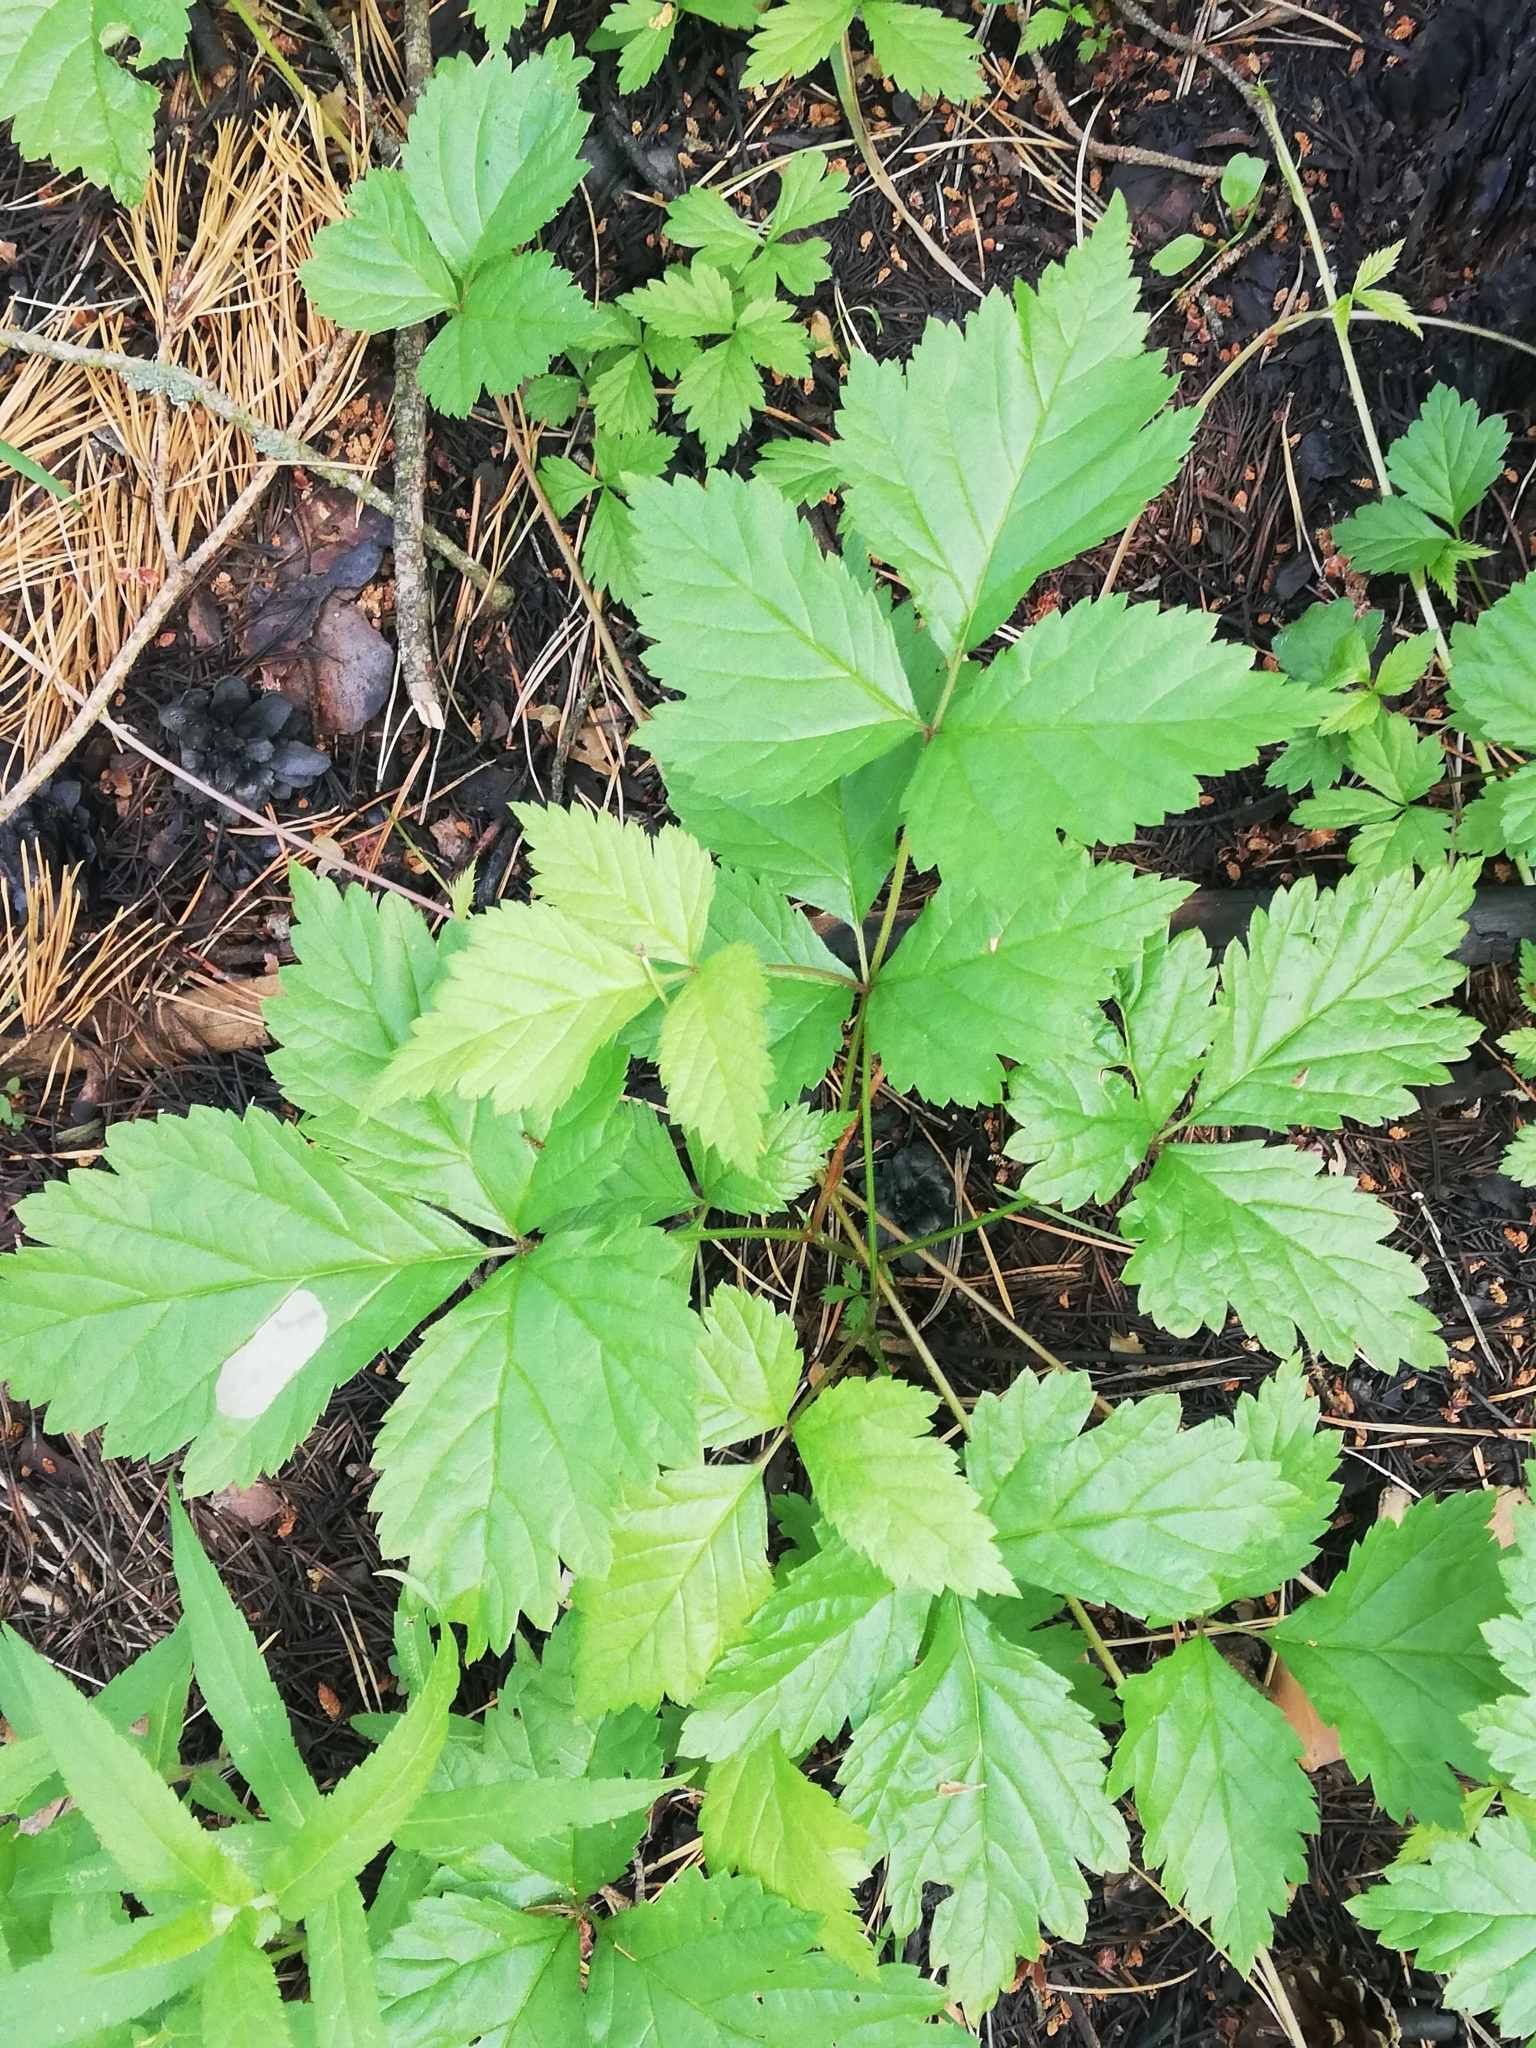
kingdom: Plantae
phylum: Tracheophyta
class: Magnoliopsida
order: Rosales
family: Rosaceae
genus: Rubus
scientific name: Rubus saxatilis
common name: Stone bramble
